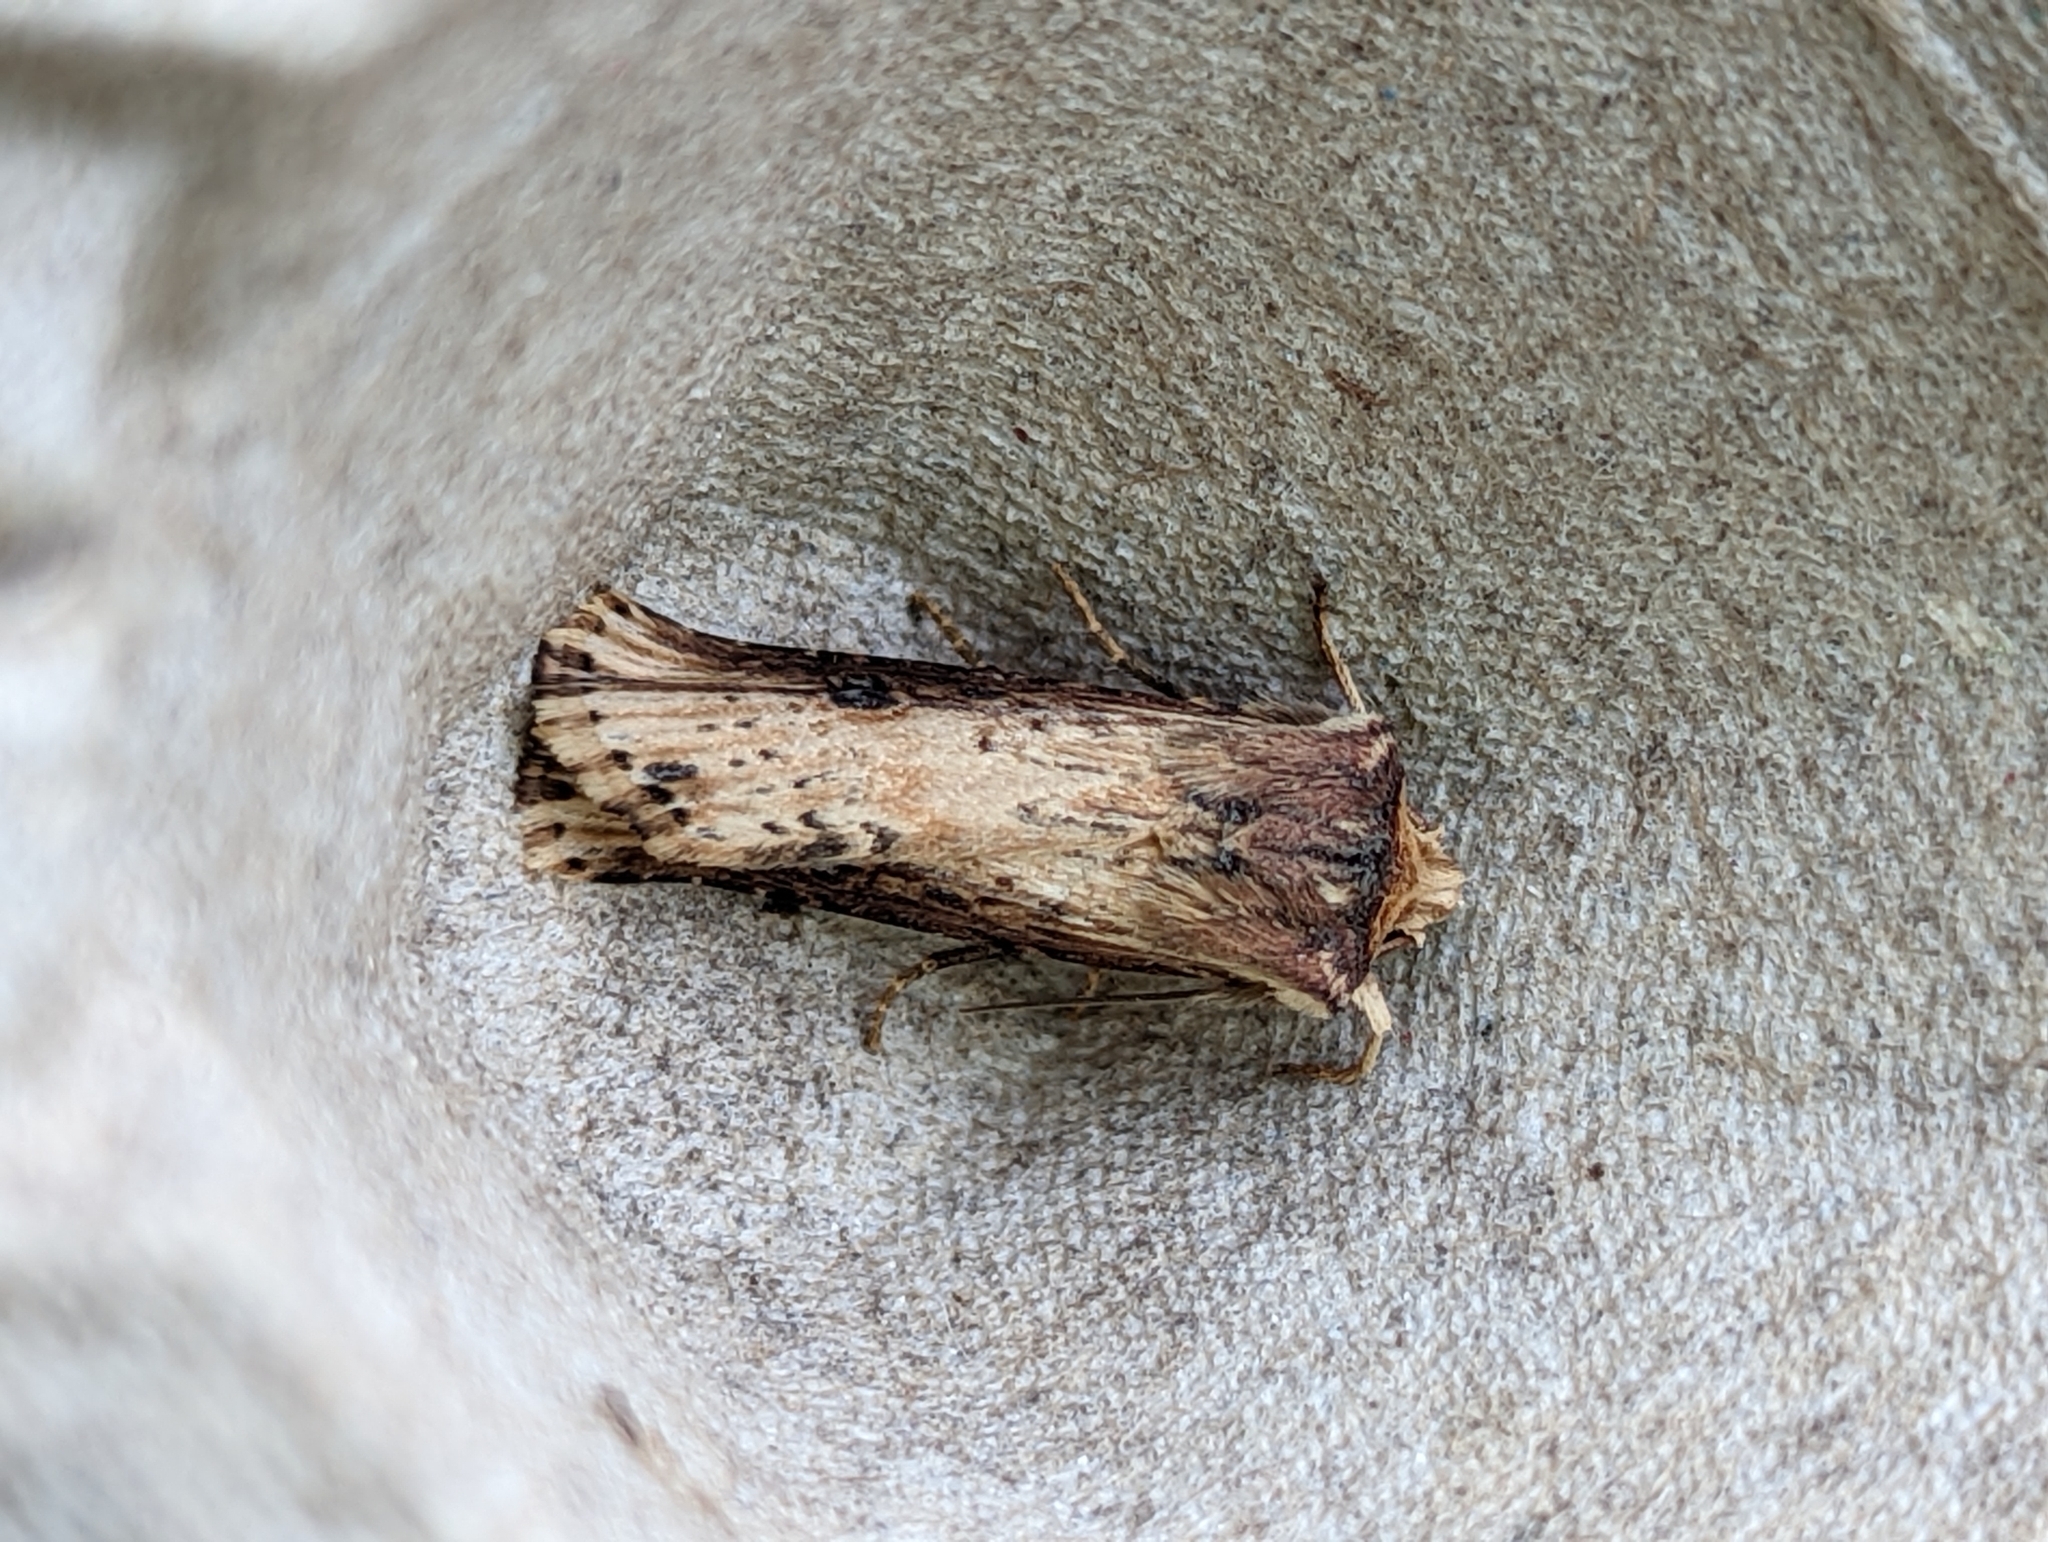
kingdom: Animalia
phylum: Arthropoda
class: Insecta
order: Lepidoptera
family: Noctuidae
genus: Axylia
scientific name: Axylia putris
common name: Flame
